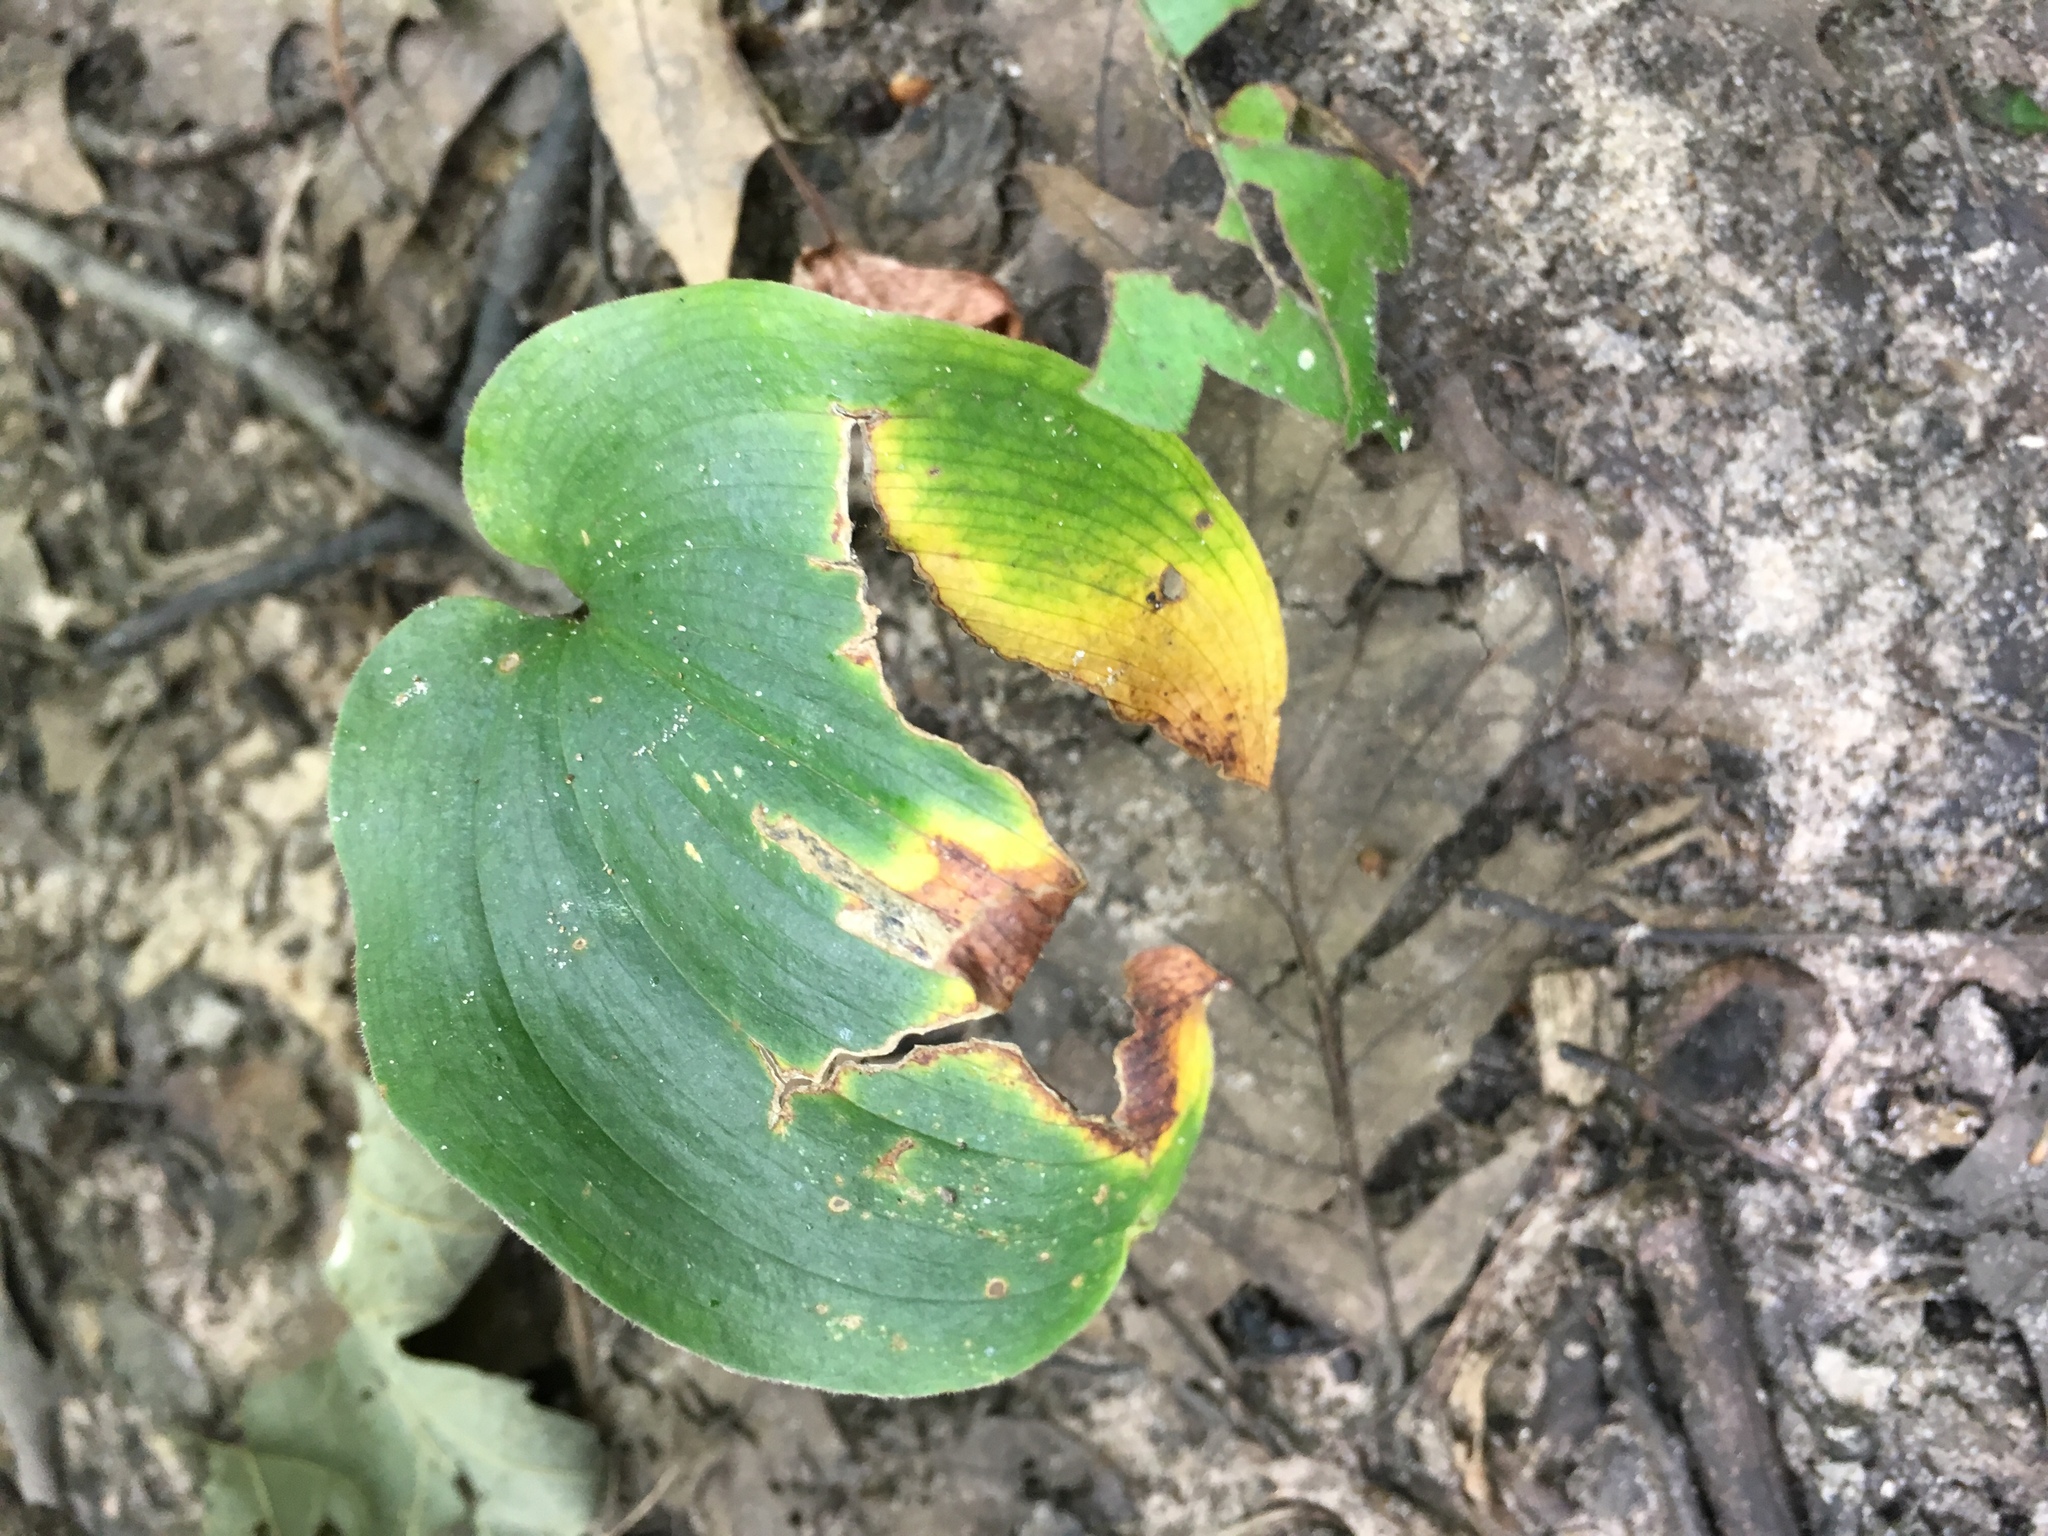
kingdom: Plantae
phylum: Tracheophyta
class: Liliopsida
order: Asparagales
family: Asparagaceae
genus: Maianthemum
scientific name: Maianthemum canadense
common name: False lily-of-the-valley
